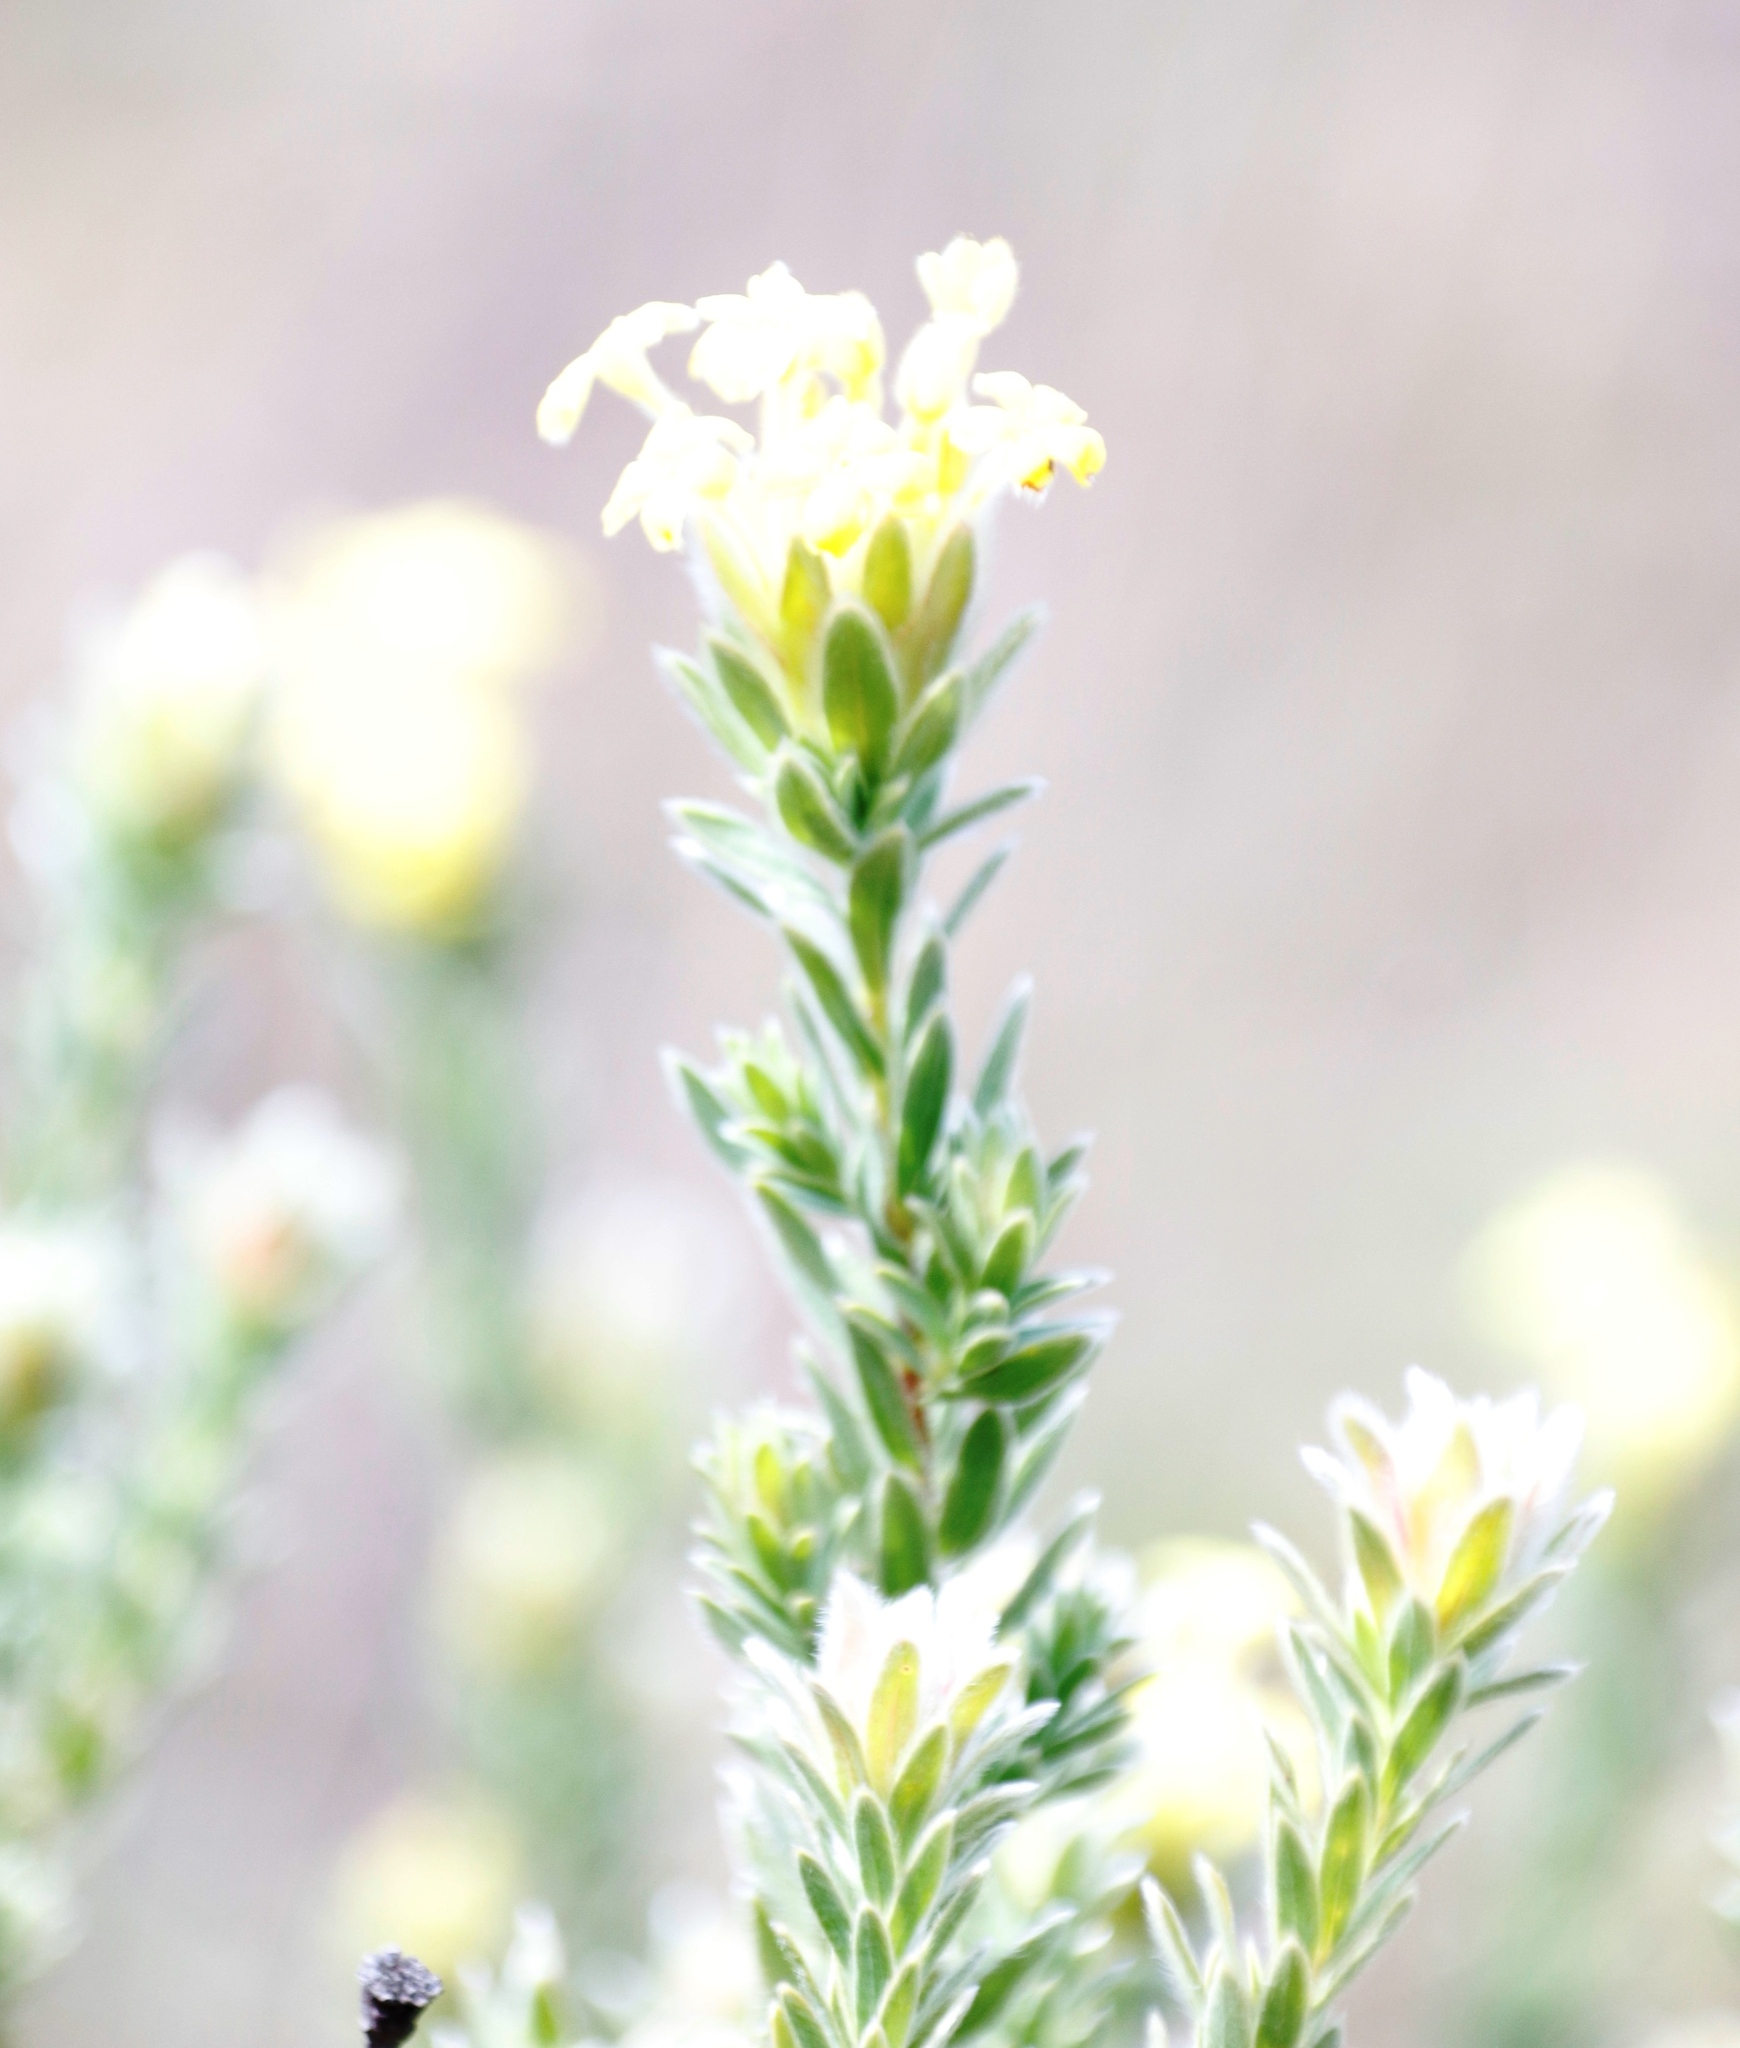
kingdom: Plantae
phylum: Tracheophyta
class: Magnoliopsida
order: Malvales
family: Thymelaeaceae
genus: Gnidia
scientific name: Gnidia anthylloides
